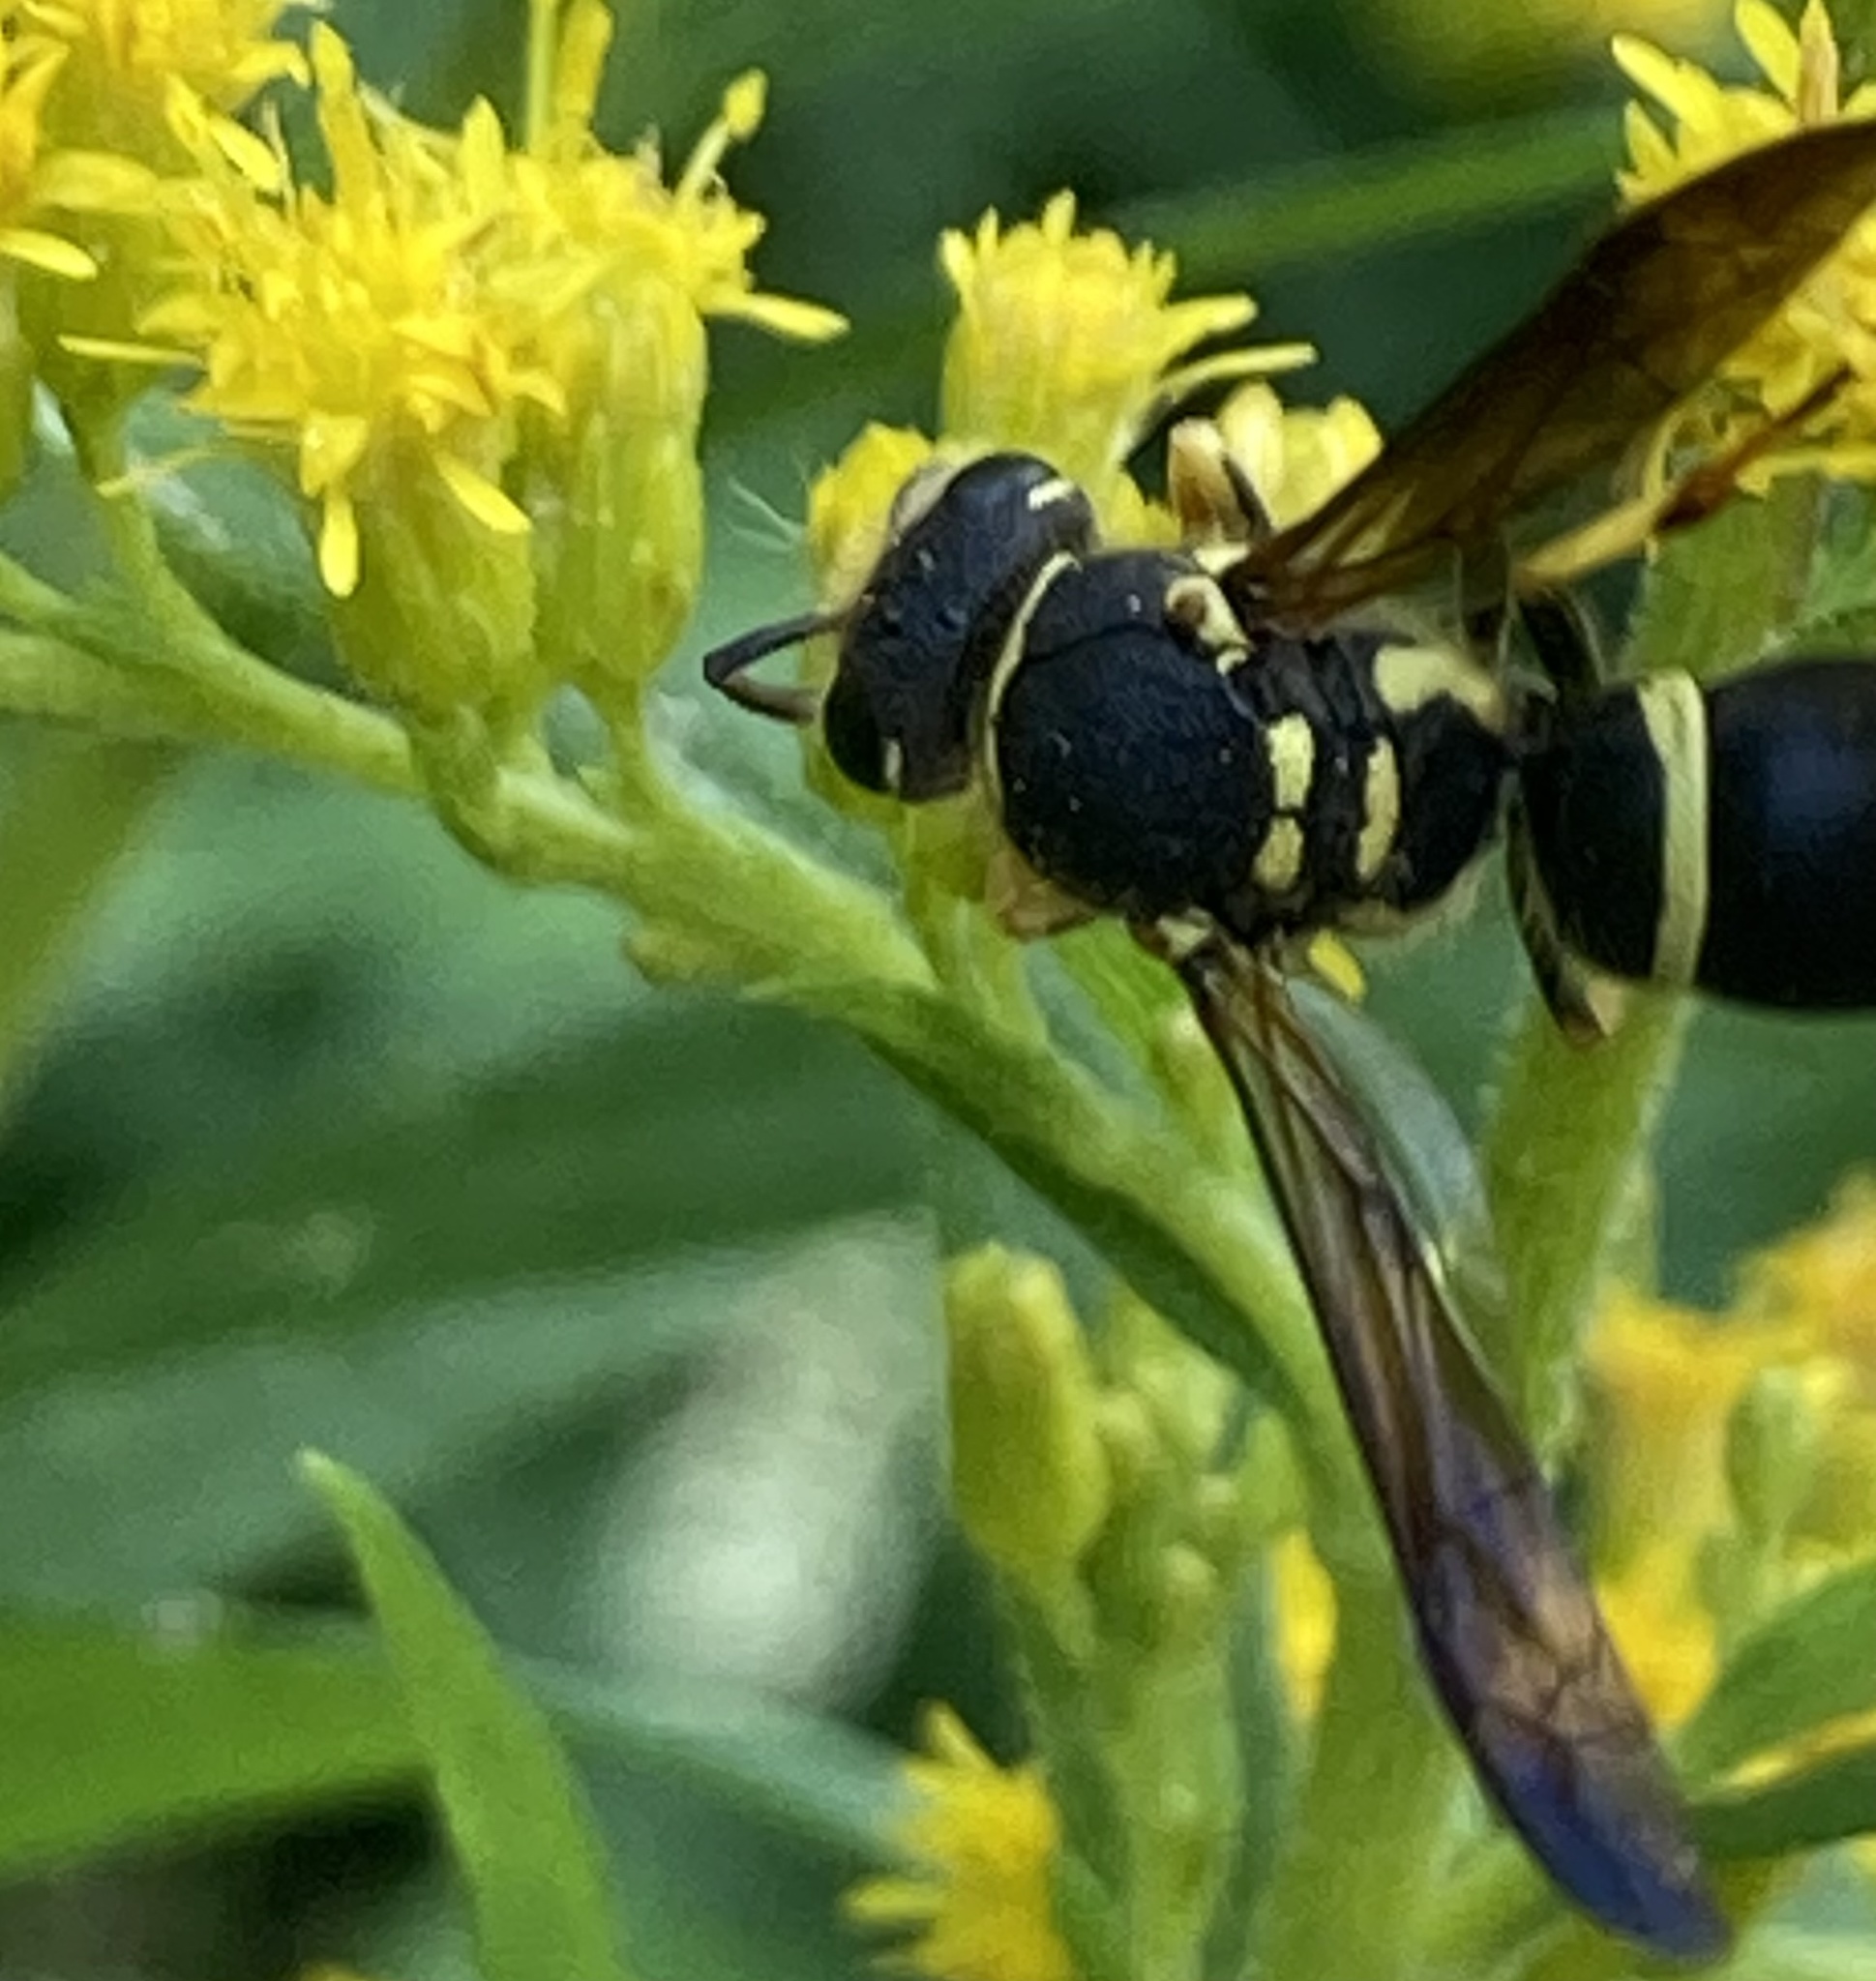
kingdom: Animalia
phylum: Arthropoda
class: Insecta
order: Hymenoptera
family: Vespidae
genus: Ancistrocerus
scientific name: Ancistrocerus catskill
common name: Vespid wasp
